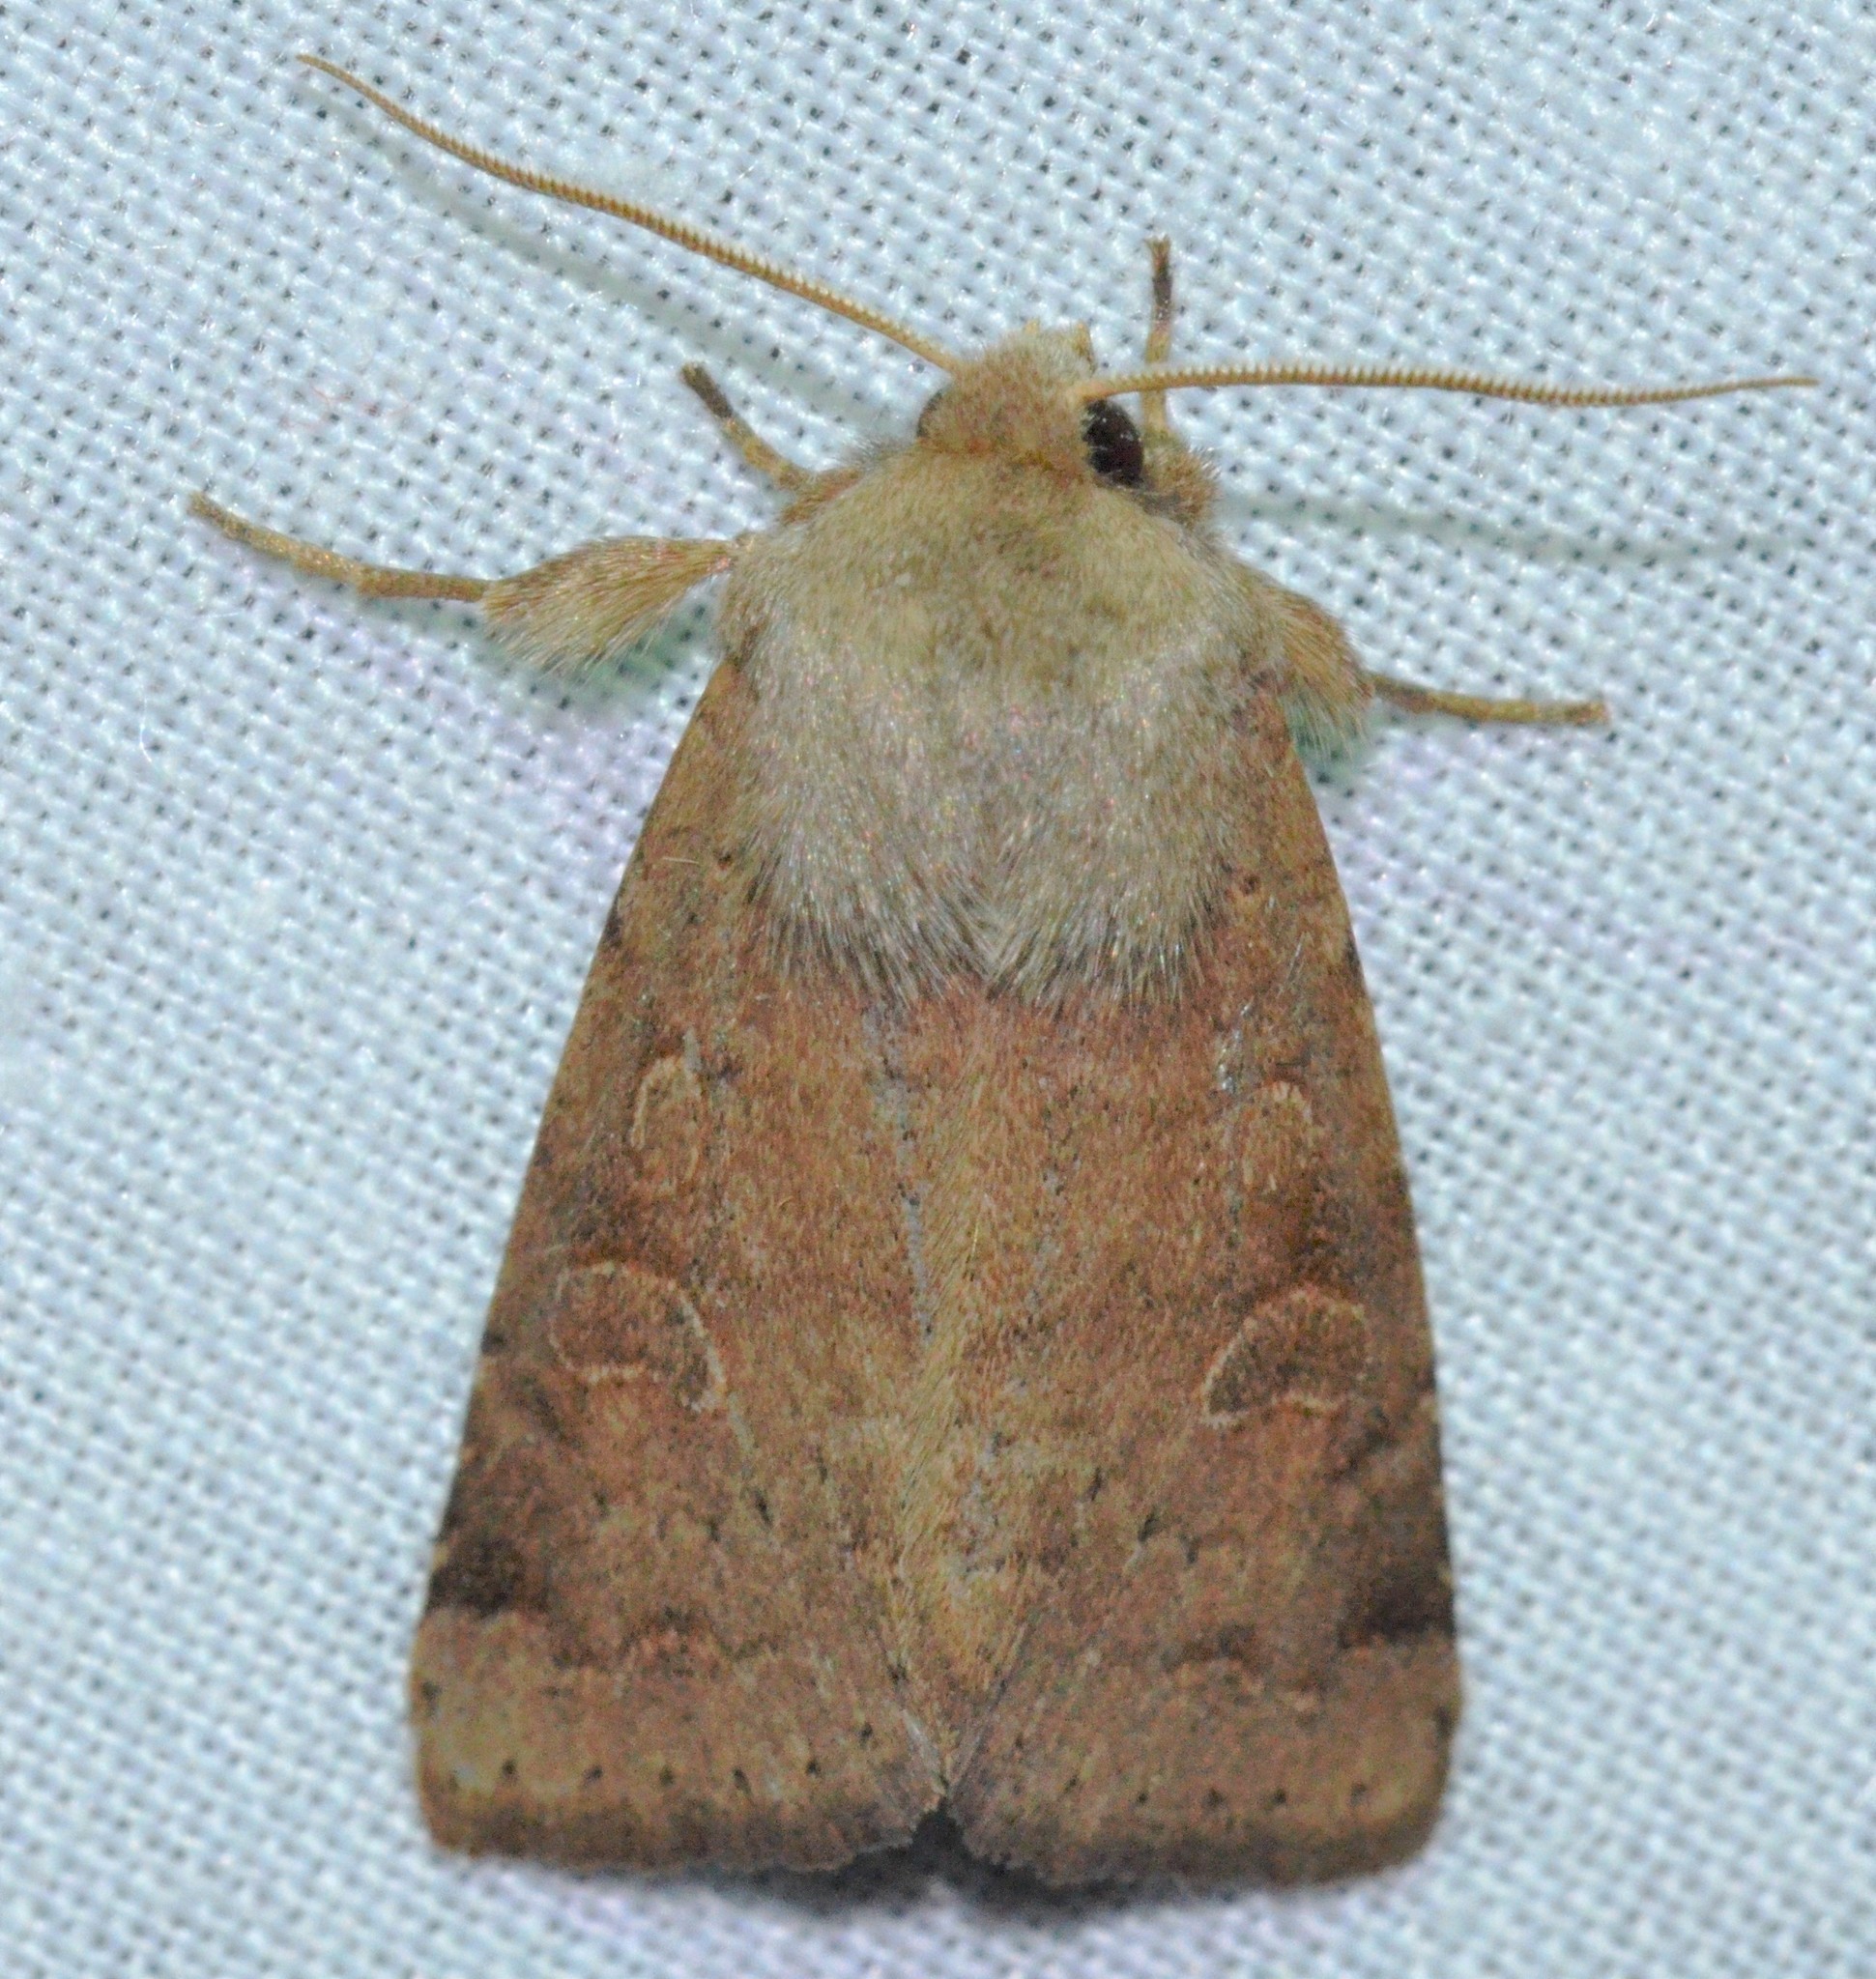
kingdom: Animalia
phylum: Arthropoda
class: Insecta
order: Lepidoptera
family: Noctuidae
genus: Orthosia
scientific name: Orthosia alurina
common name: Gray quaker
